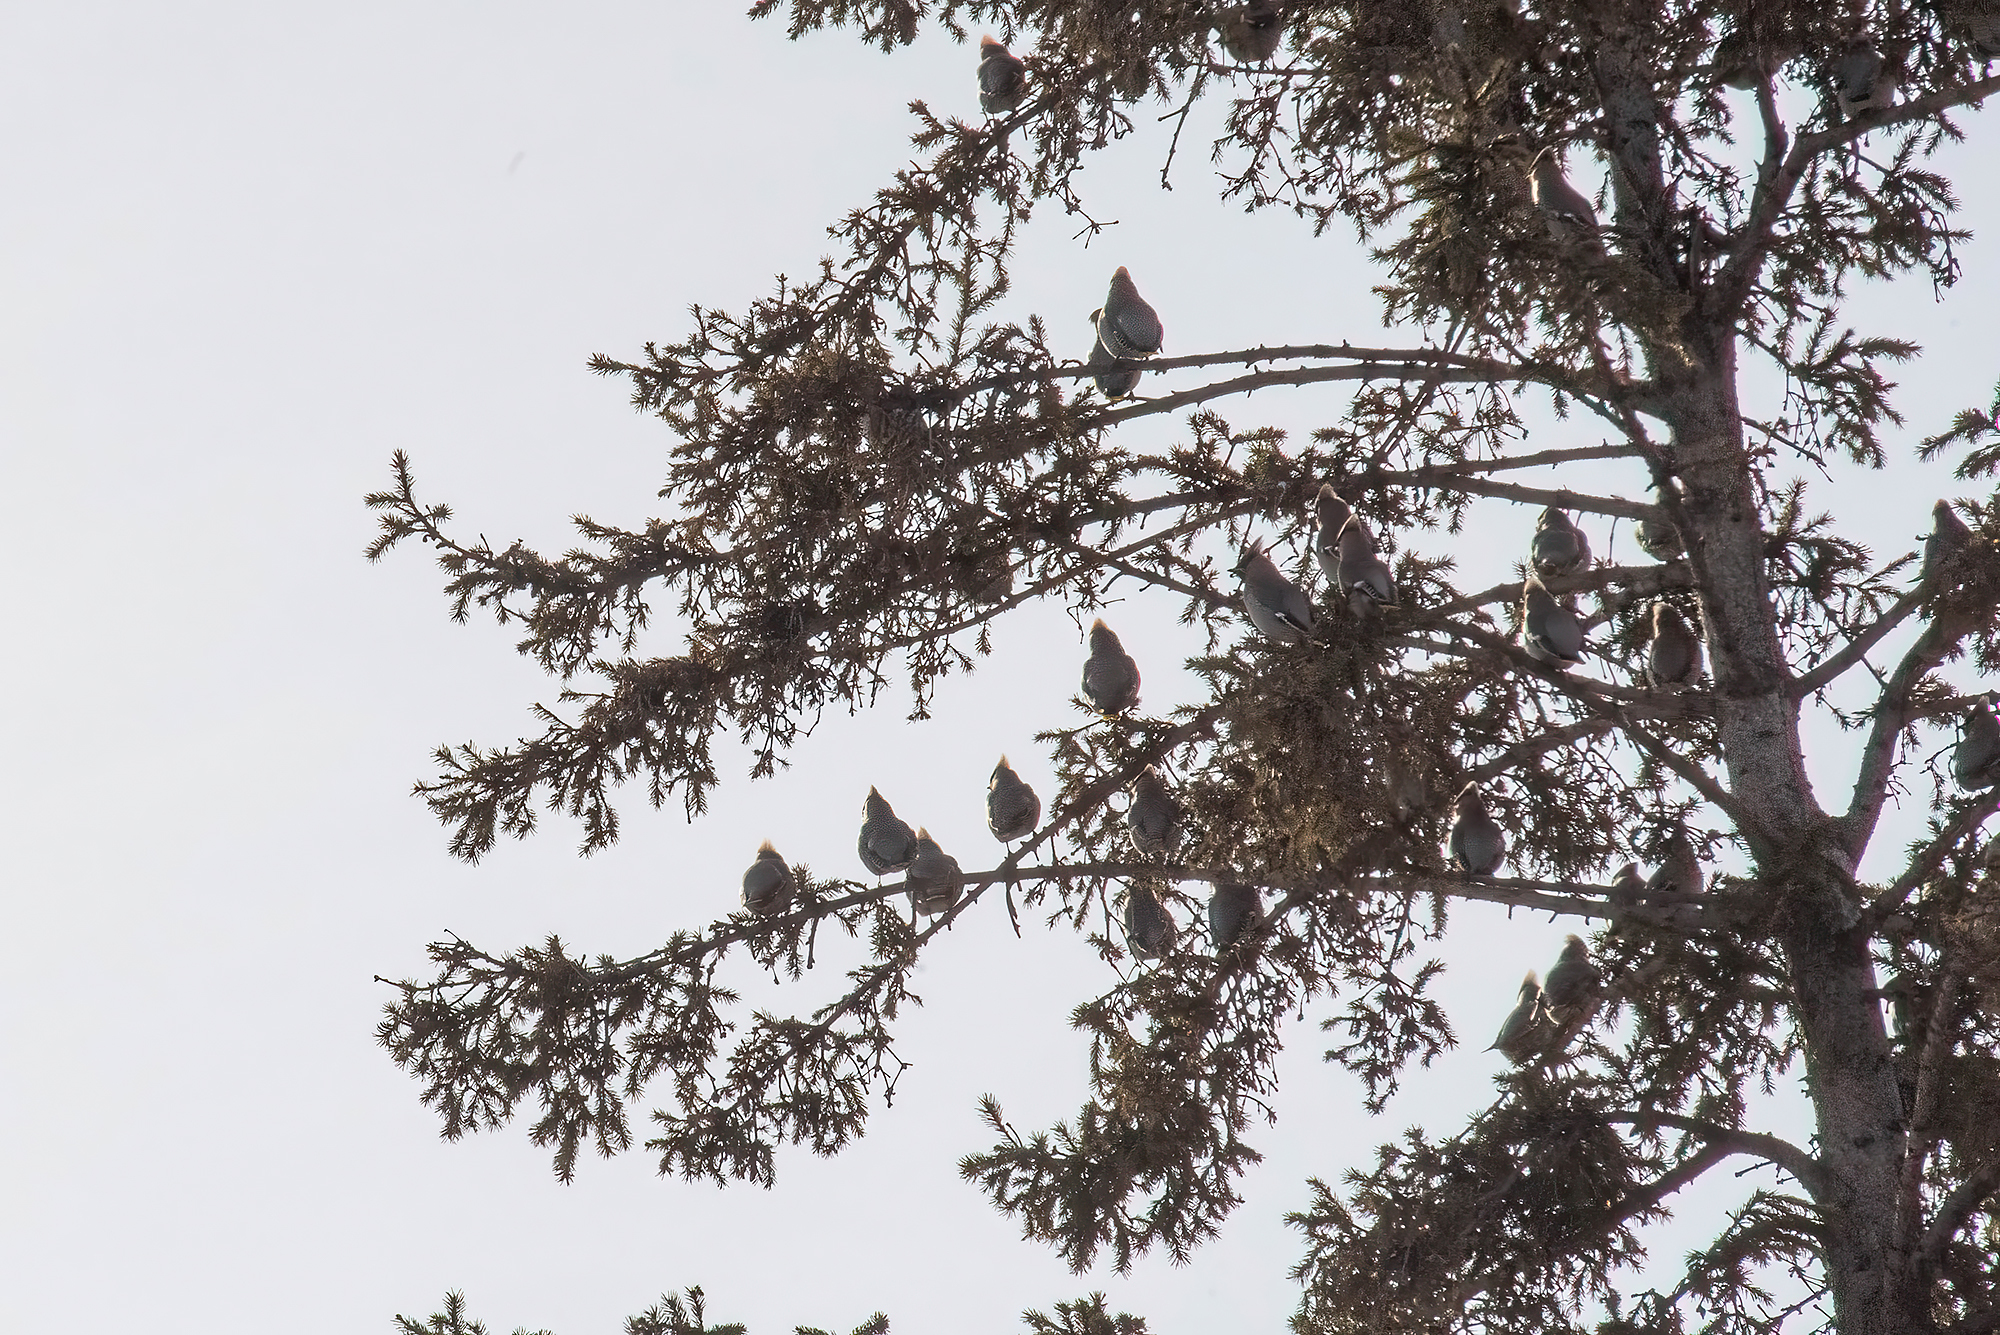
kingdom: Animalia
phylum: Chordata
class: Aves
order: Passeriformes
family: Bombycillidae
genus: Bombycilla
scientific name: Bombycilla garrulus
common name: Bohemian waxwing
